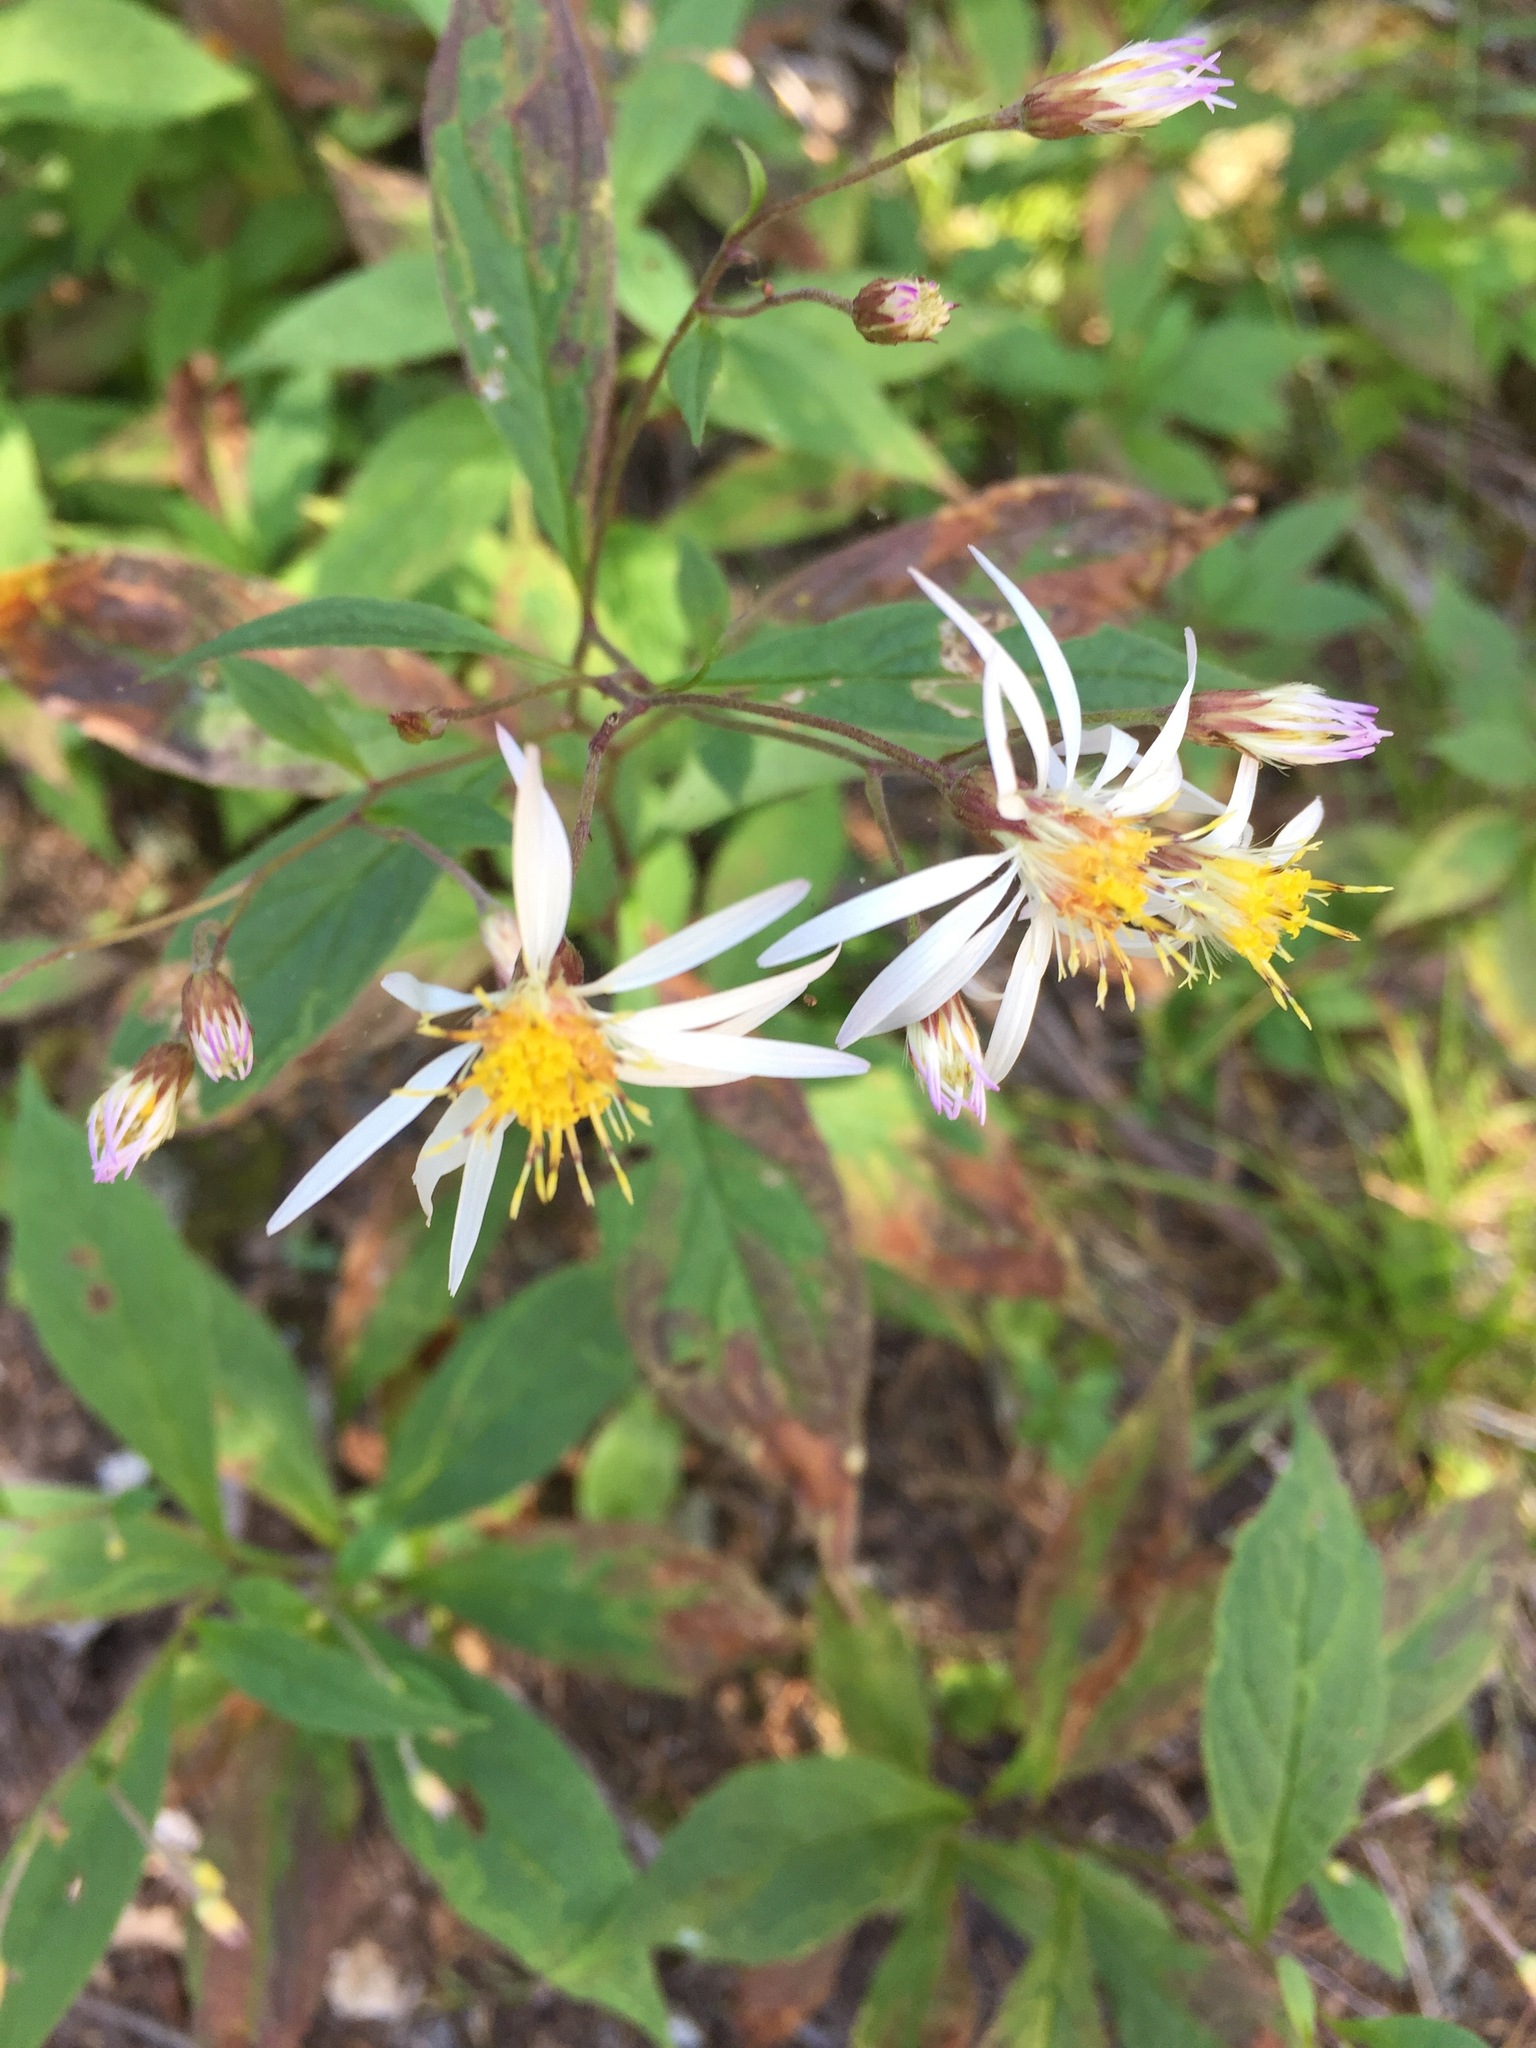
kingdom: Plantae
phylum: Tracheophyta
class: Magnoliopsida
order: Asterales
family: Asteraceae
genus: Oclemena
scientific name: Oclemena acuminata
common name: Mountain aster
